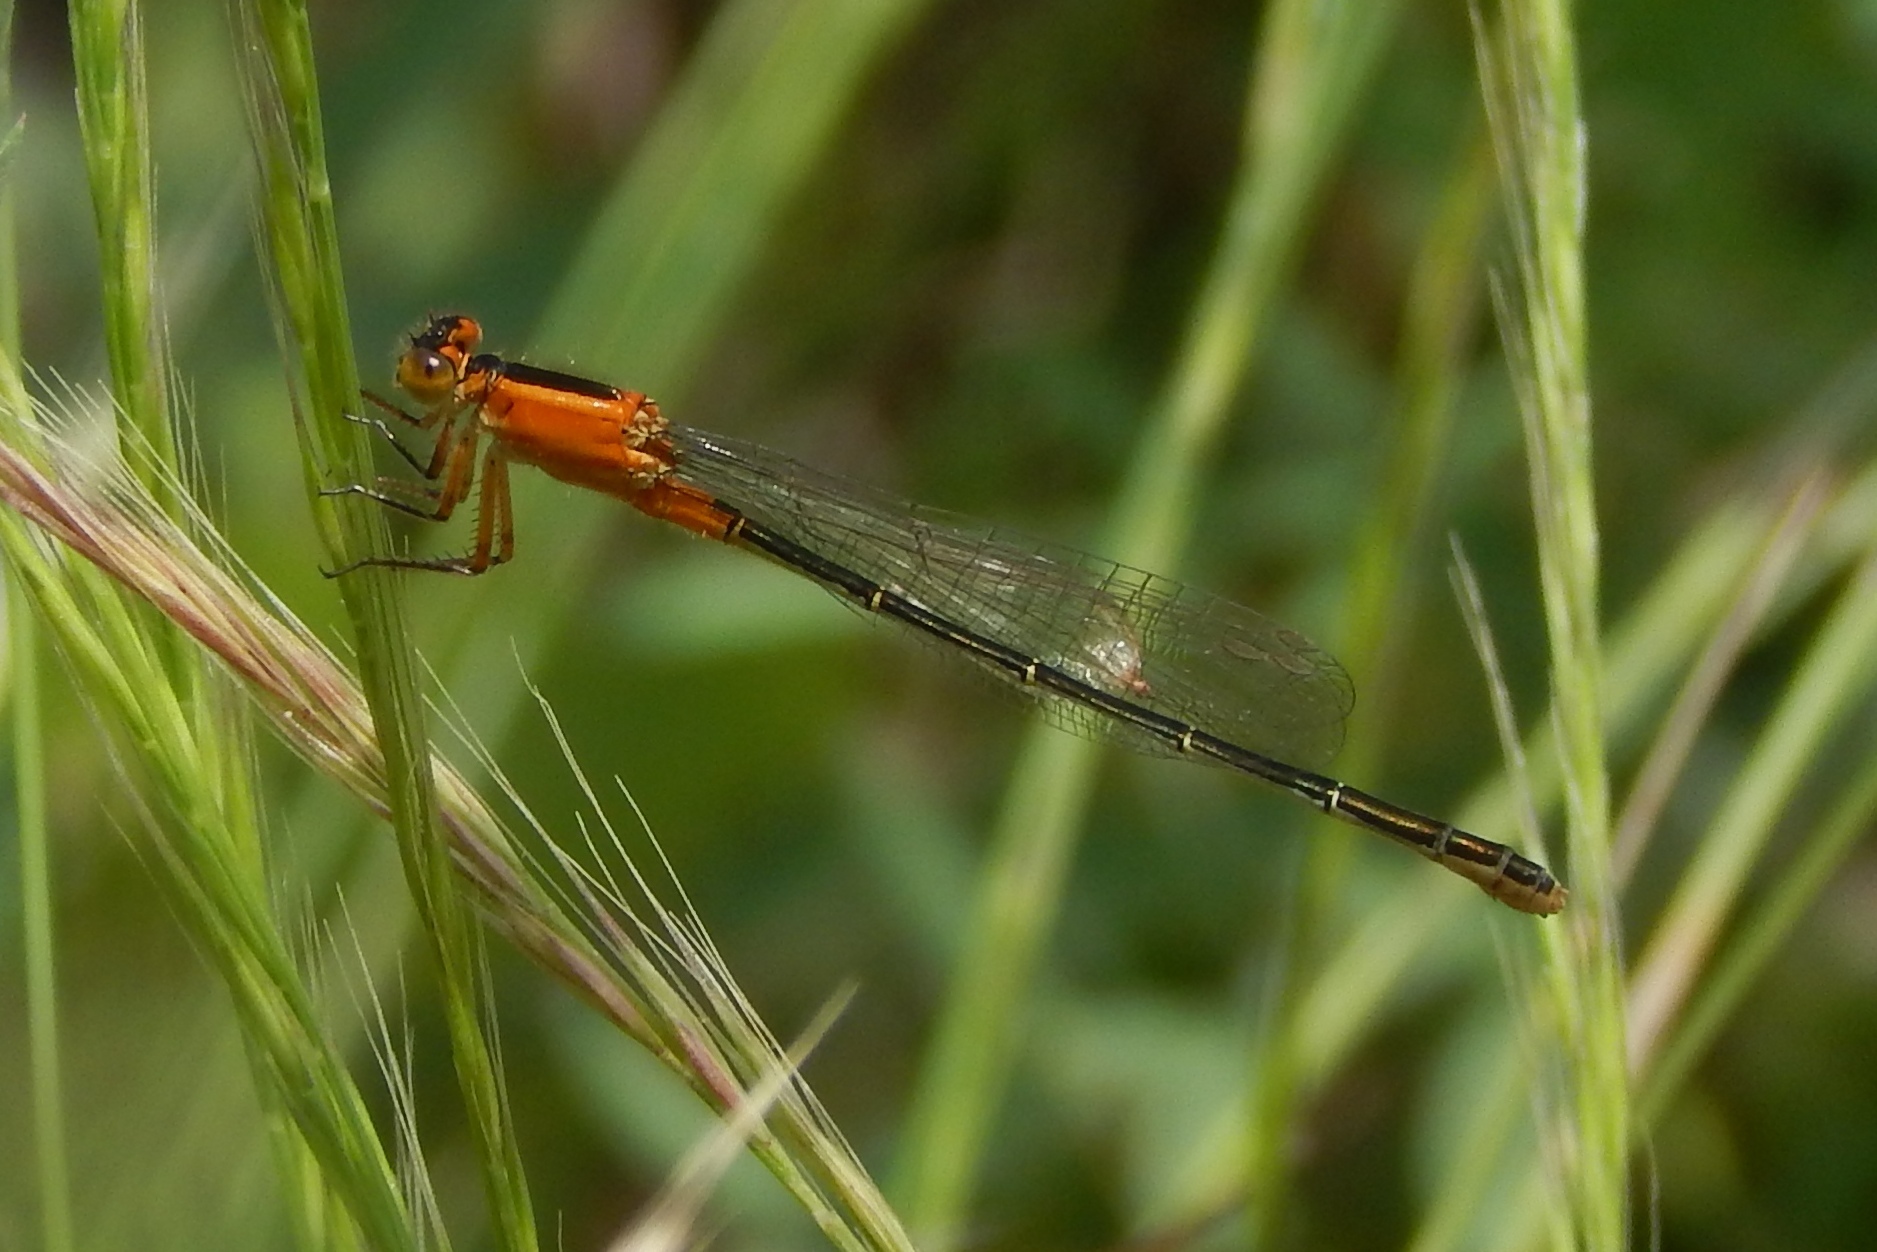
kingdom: Animalia
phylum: Arthropoda
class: Insecta
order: Odonata
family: Coenagrionidae
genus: Ischnura
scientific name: Ischnura ramburii
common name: Rambur's forktail
